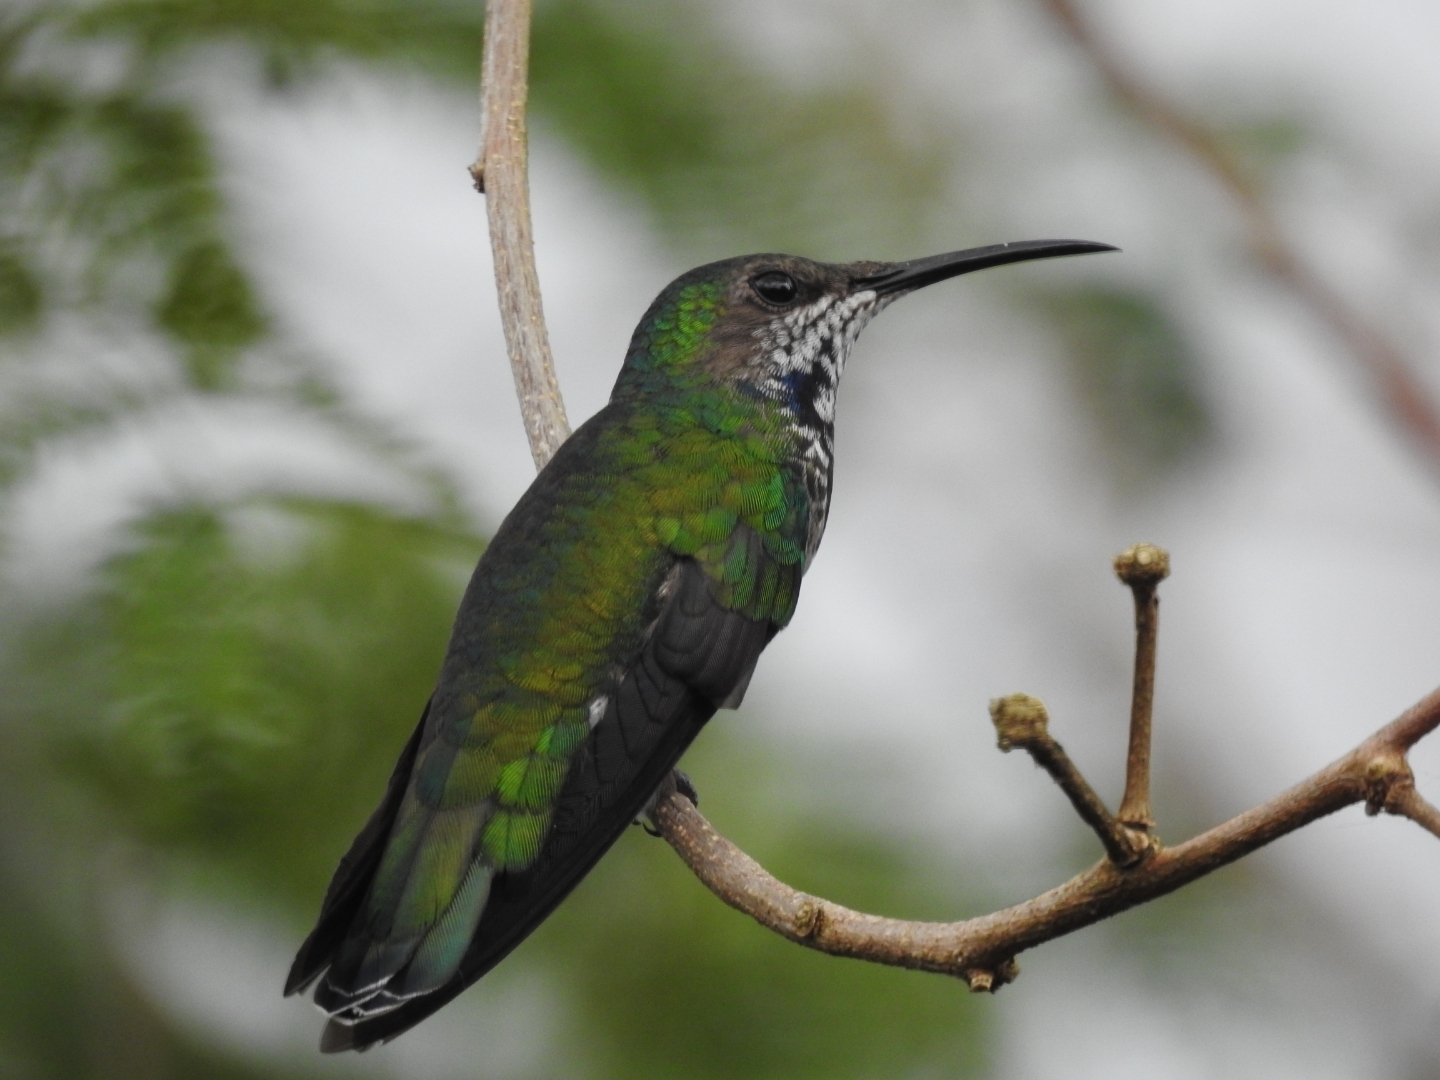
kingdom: Animalia
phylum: Chordata
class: Aves
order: Apodiformes
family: Trochilidae
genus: Florisuga
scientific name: Florisuga mellivora
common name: White-necked jacobin
